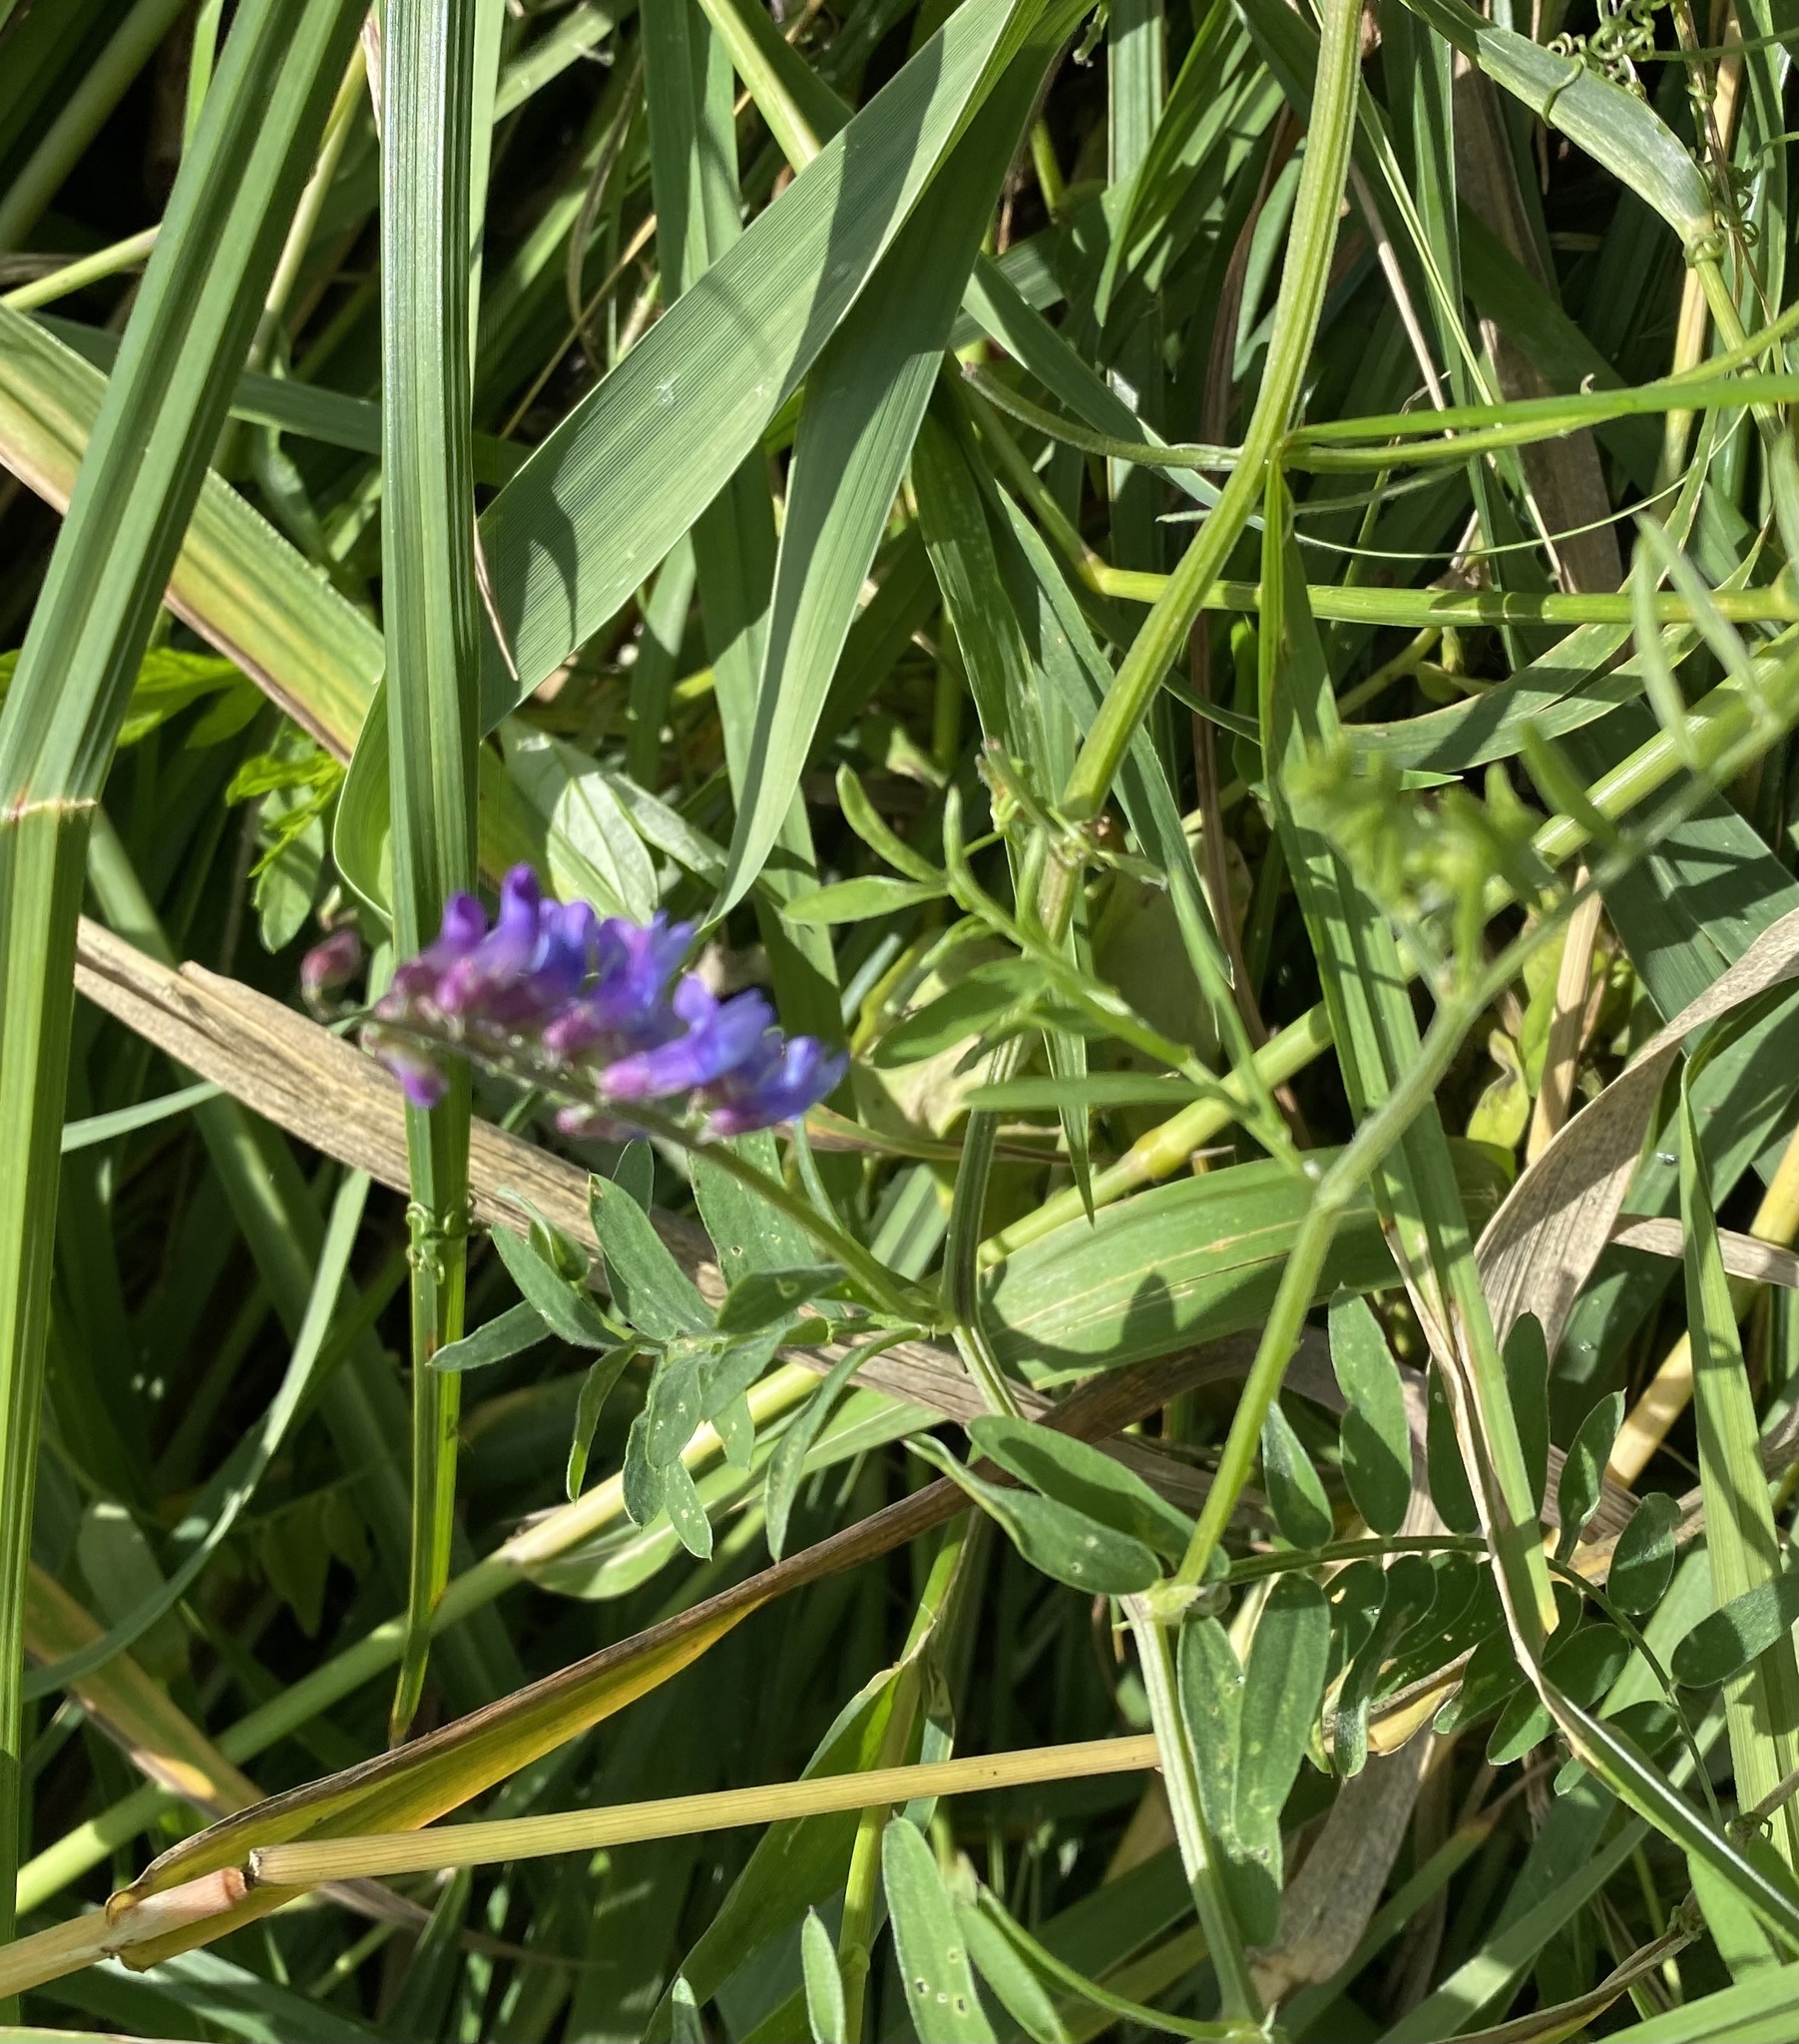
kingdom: Plantae
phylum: Tracheophyta
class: Magnoliopsida
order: Fabales
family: Fabaceae
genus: Vicia
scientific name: Vicia cracca
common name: Bird vetch
